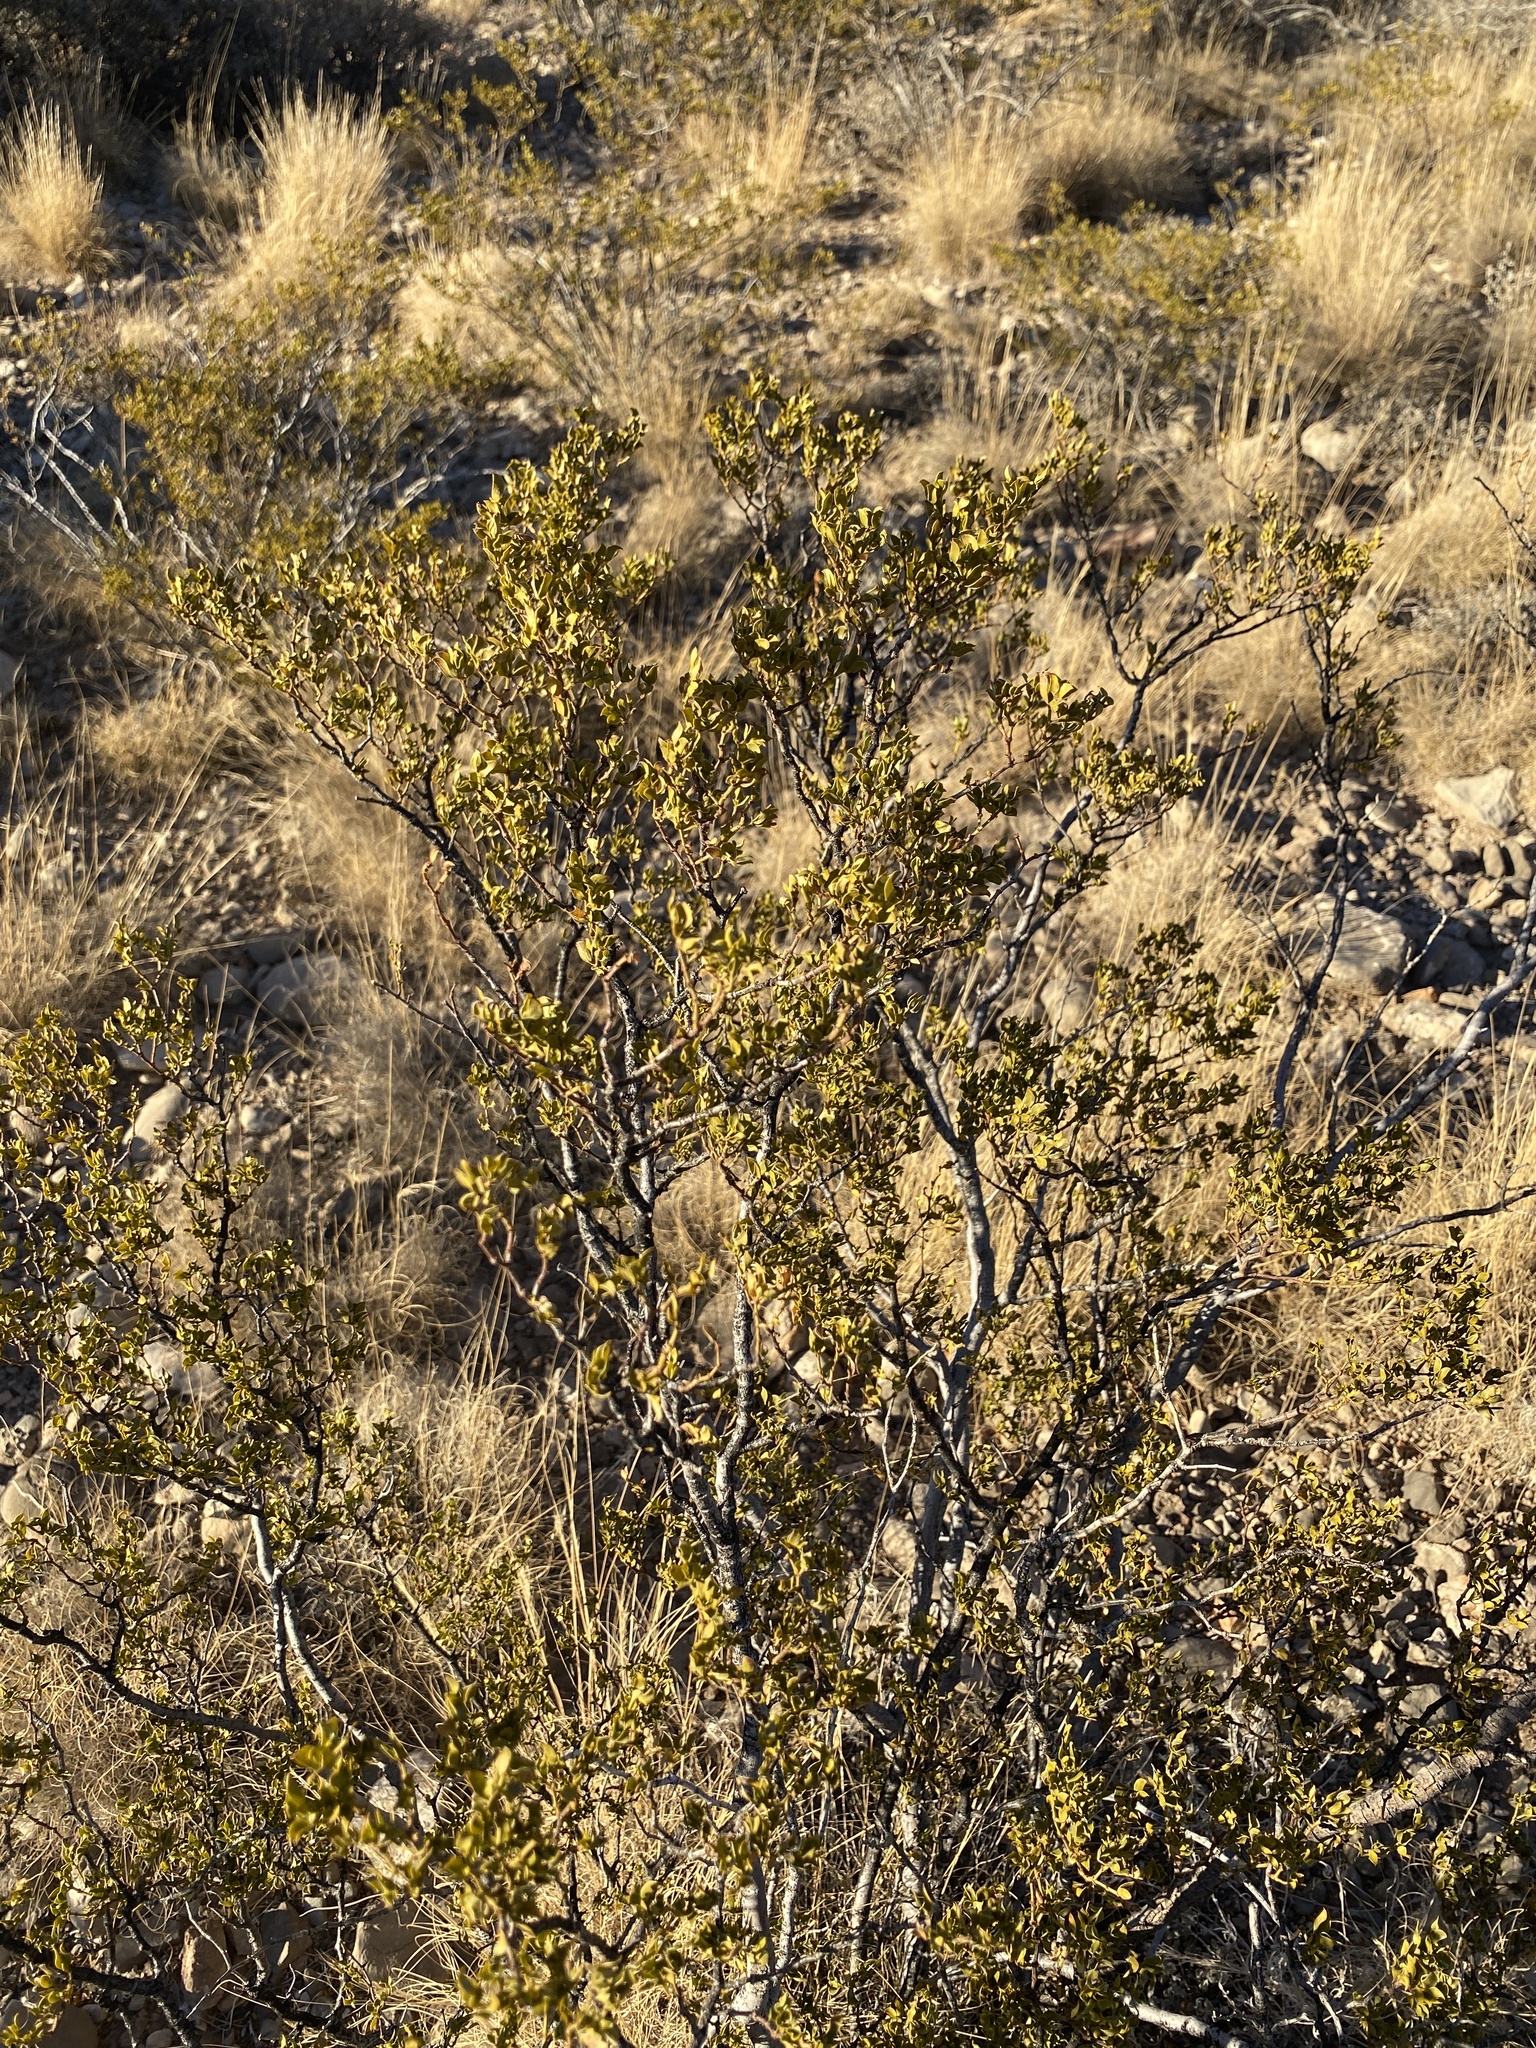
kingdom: Plantae
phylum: Tracheophyta
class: Magnoliopsida
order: Zygophyllales
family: Zygophyllaceae
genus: Larrea
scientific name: Larrea tridentata
